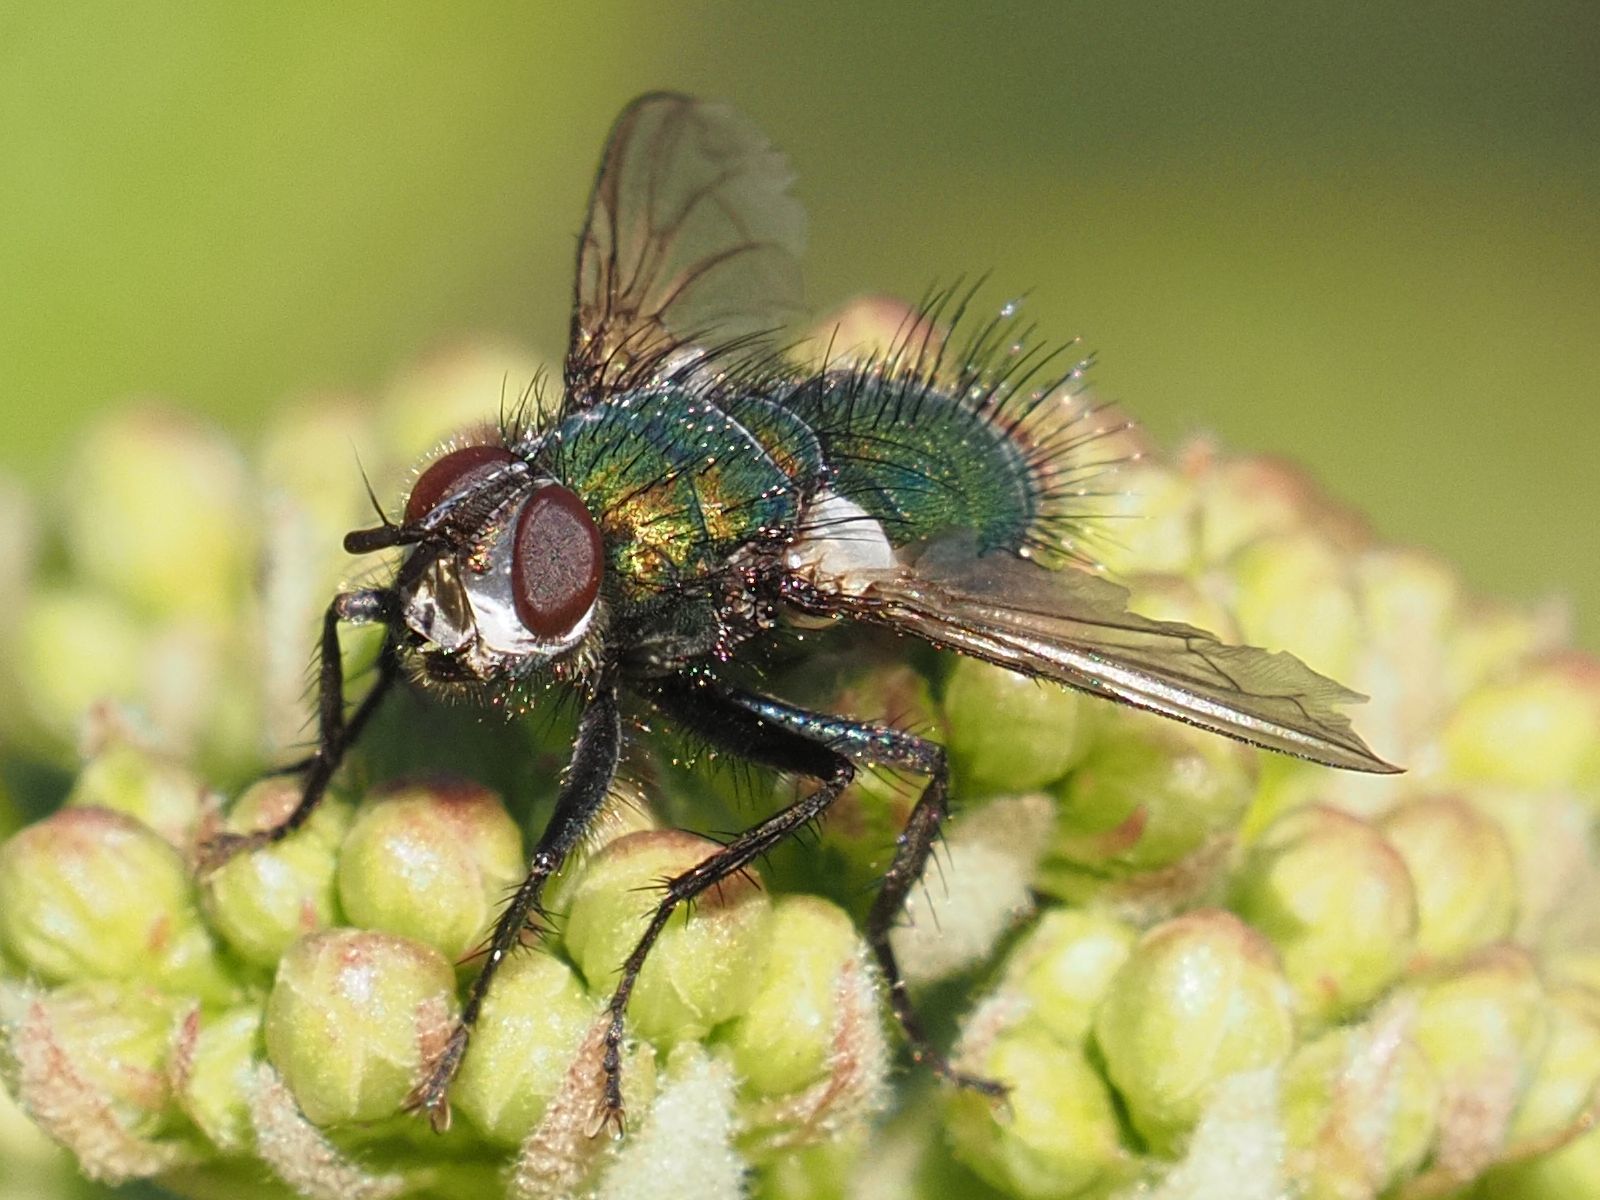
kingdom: Animalia
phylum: Arthropoda
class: Insecta
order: Diptera
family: Tachinidae
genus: Gymnocheta
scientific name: Gymnocheta viridis
